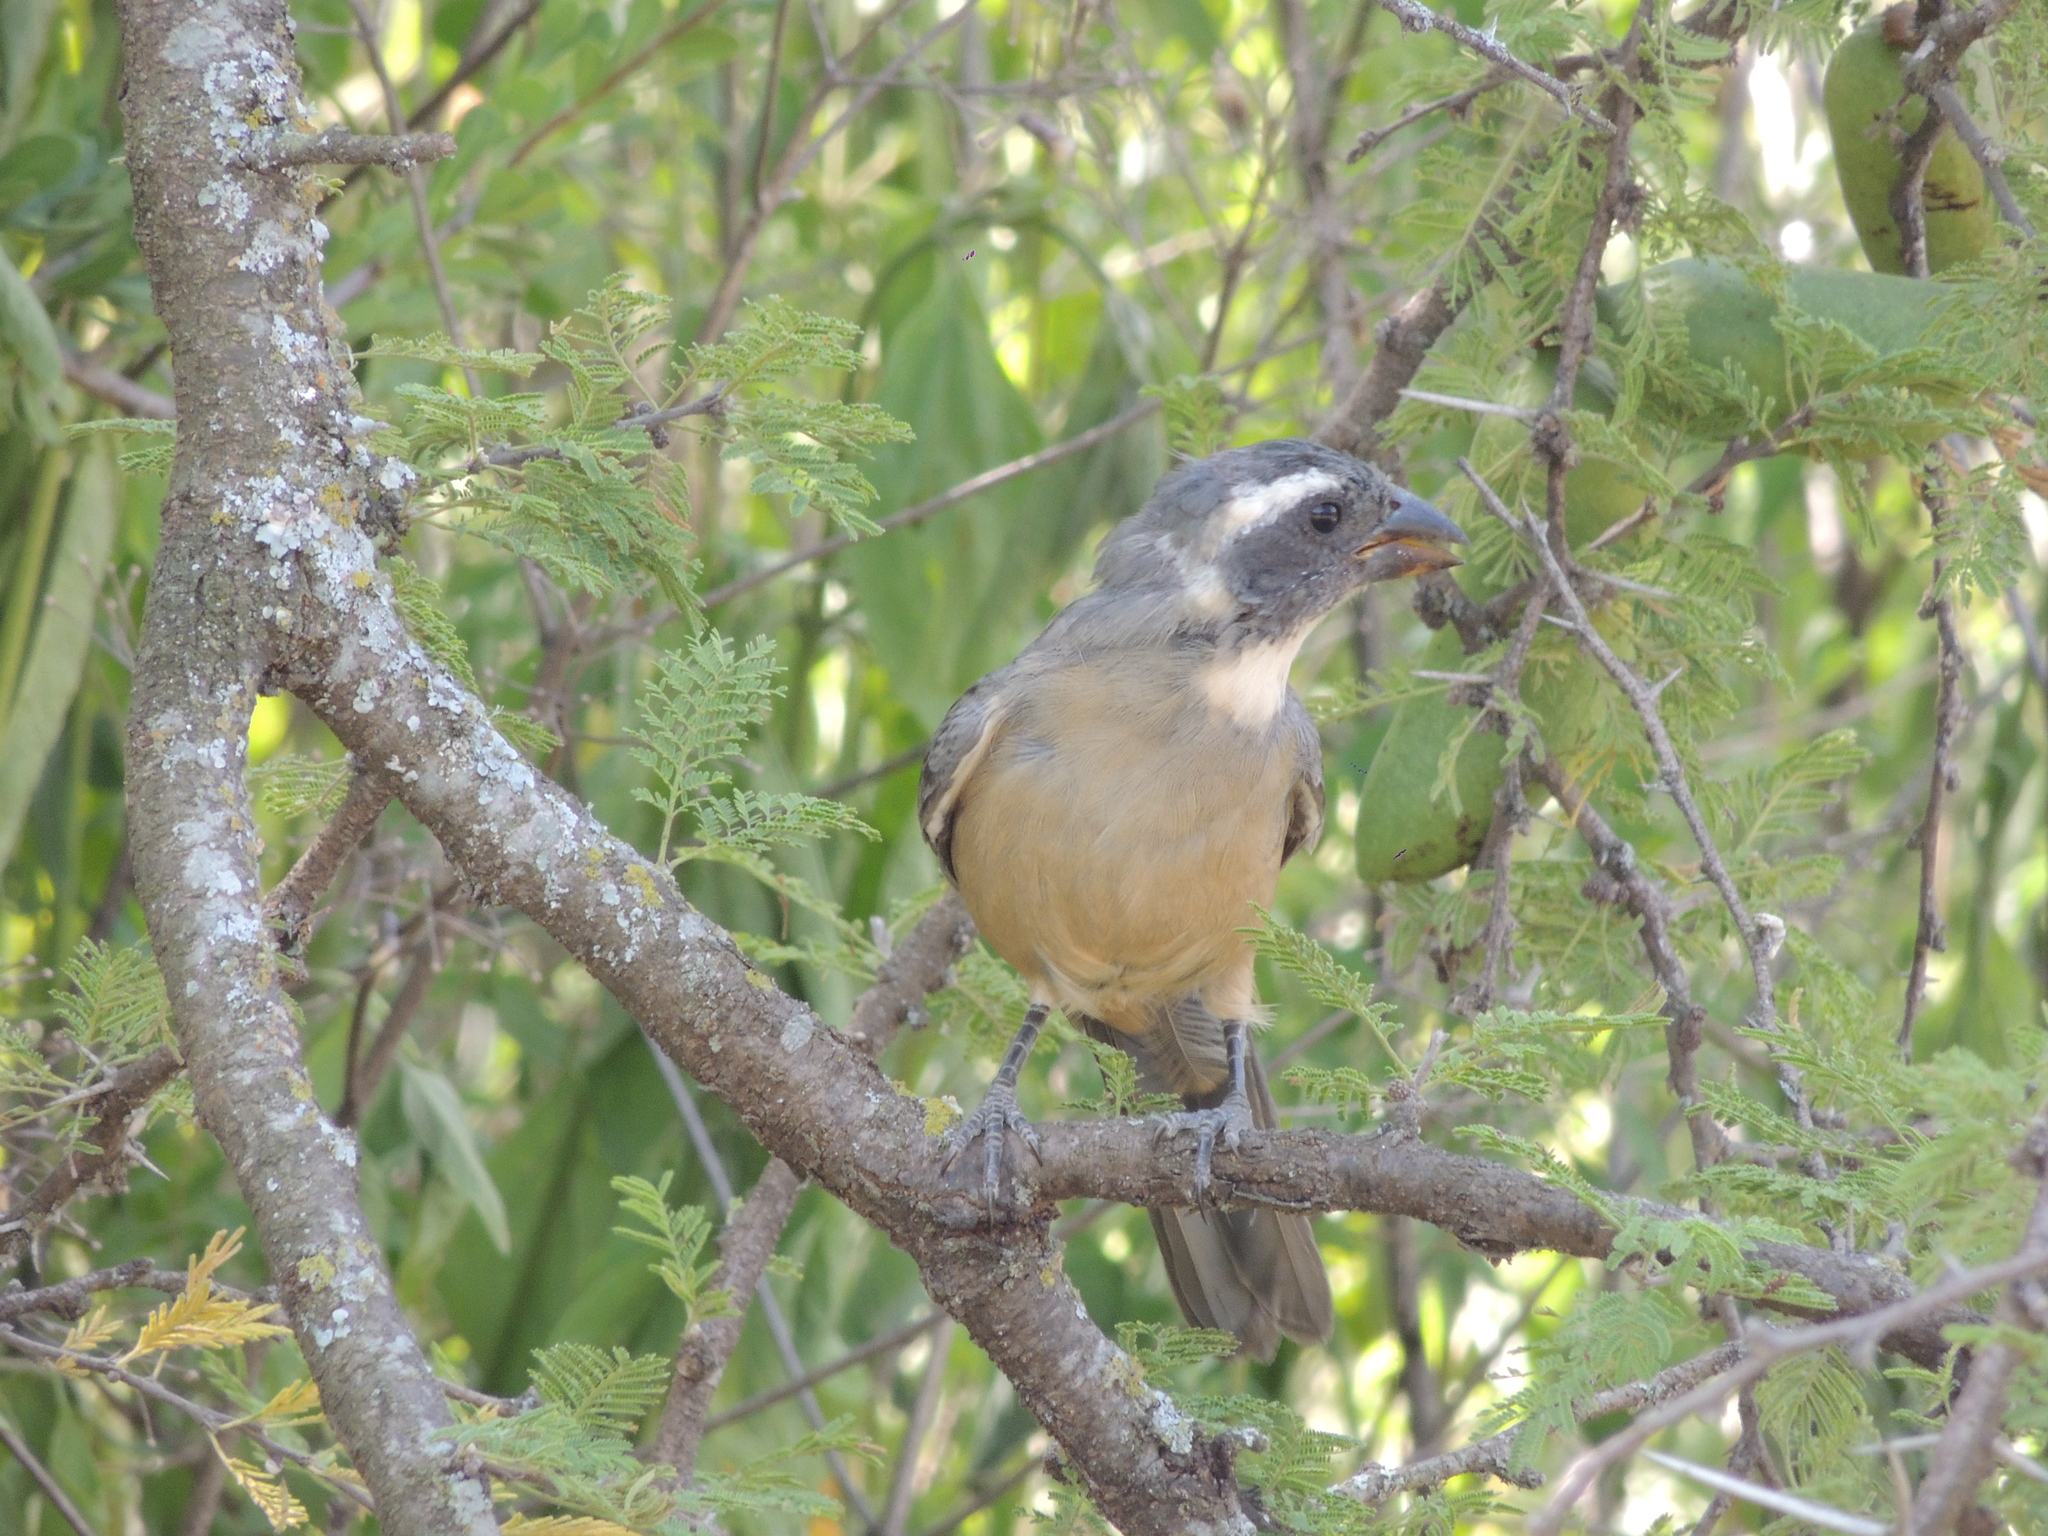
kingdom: Animalia
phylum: Chordata
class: Aves
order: Passeriformes
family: Thraupidae
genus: Saltator
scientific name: Saltator aurantiirostris
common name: Golden-billed saltator
